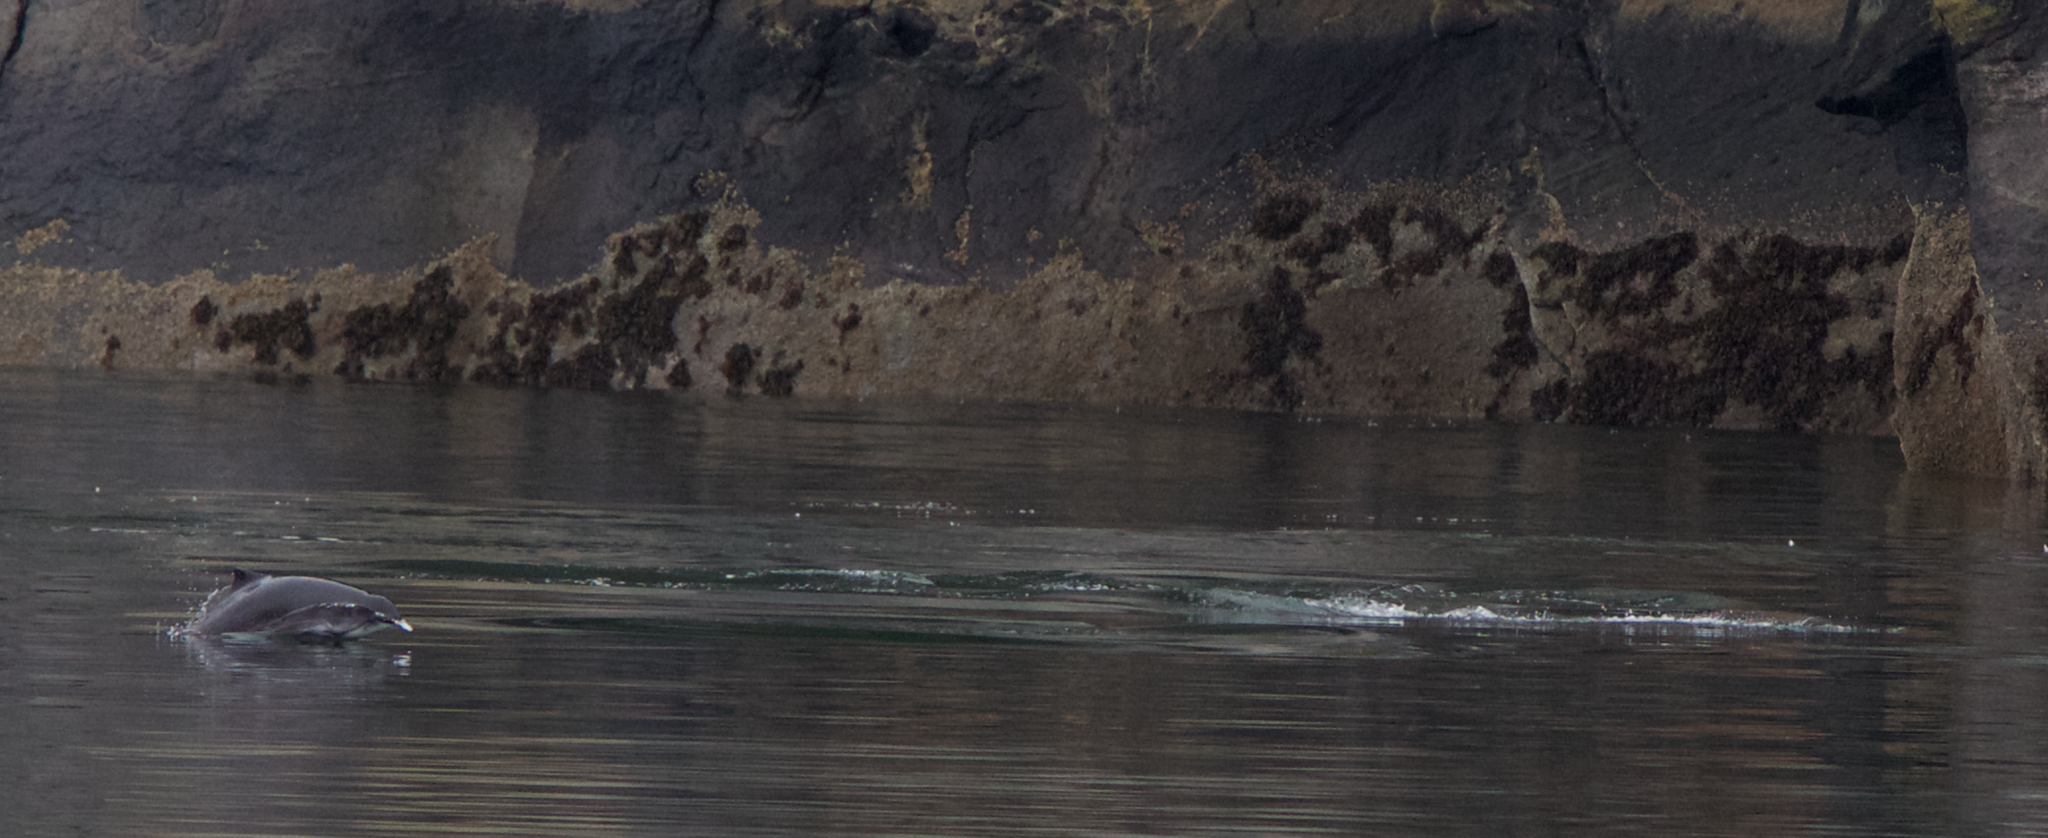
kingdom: Animalia
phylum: Chordata
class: Mammalia
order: Cetacea
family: Phocoenidae
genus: Phocoena
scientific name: Phocoena phocoena
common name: Harbor porpoise
